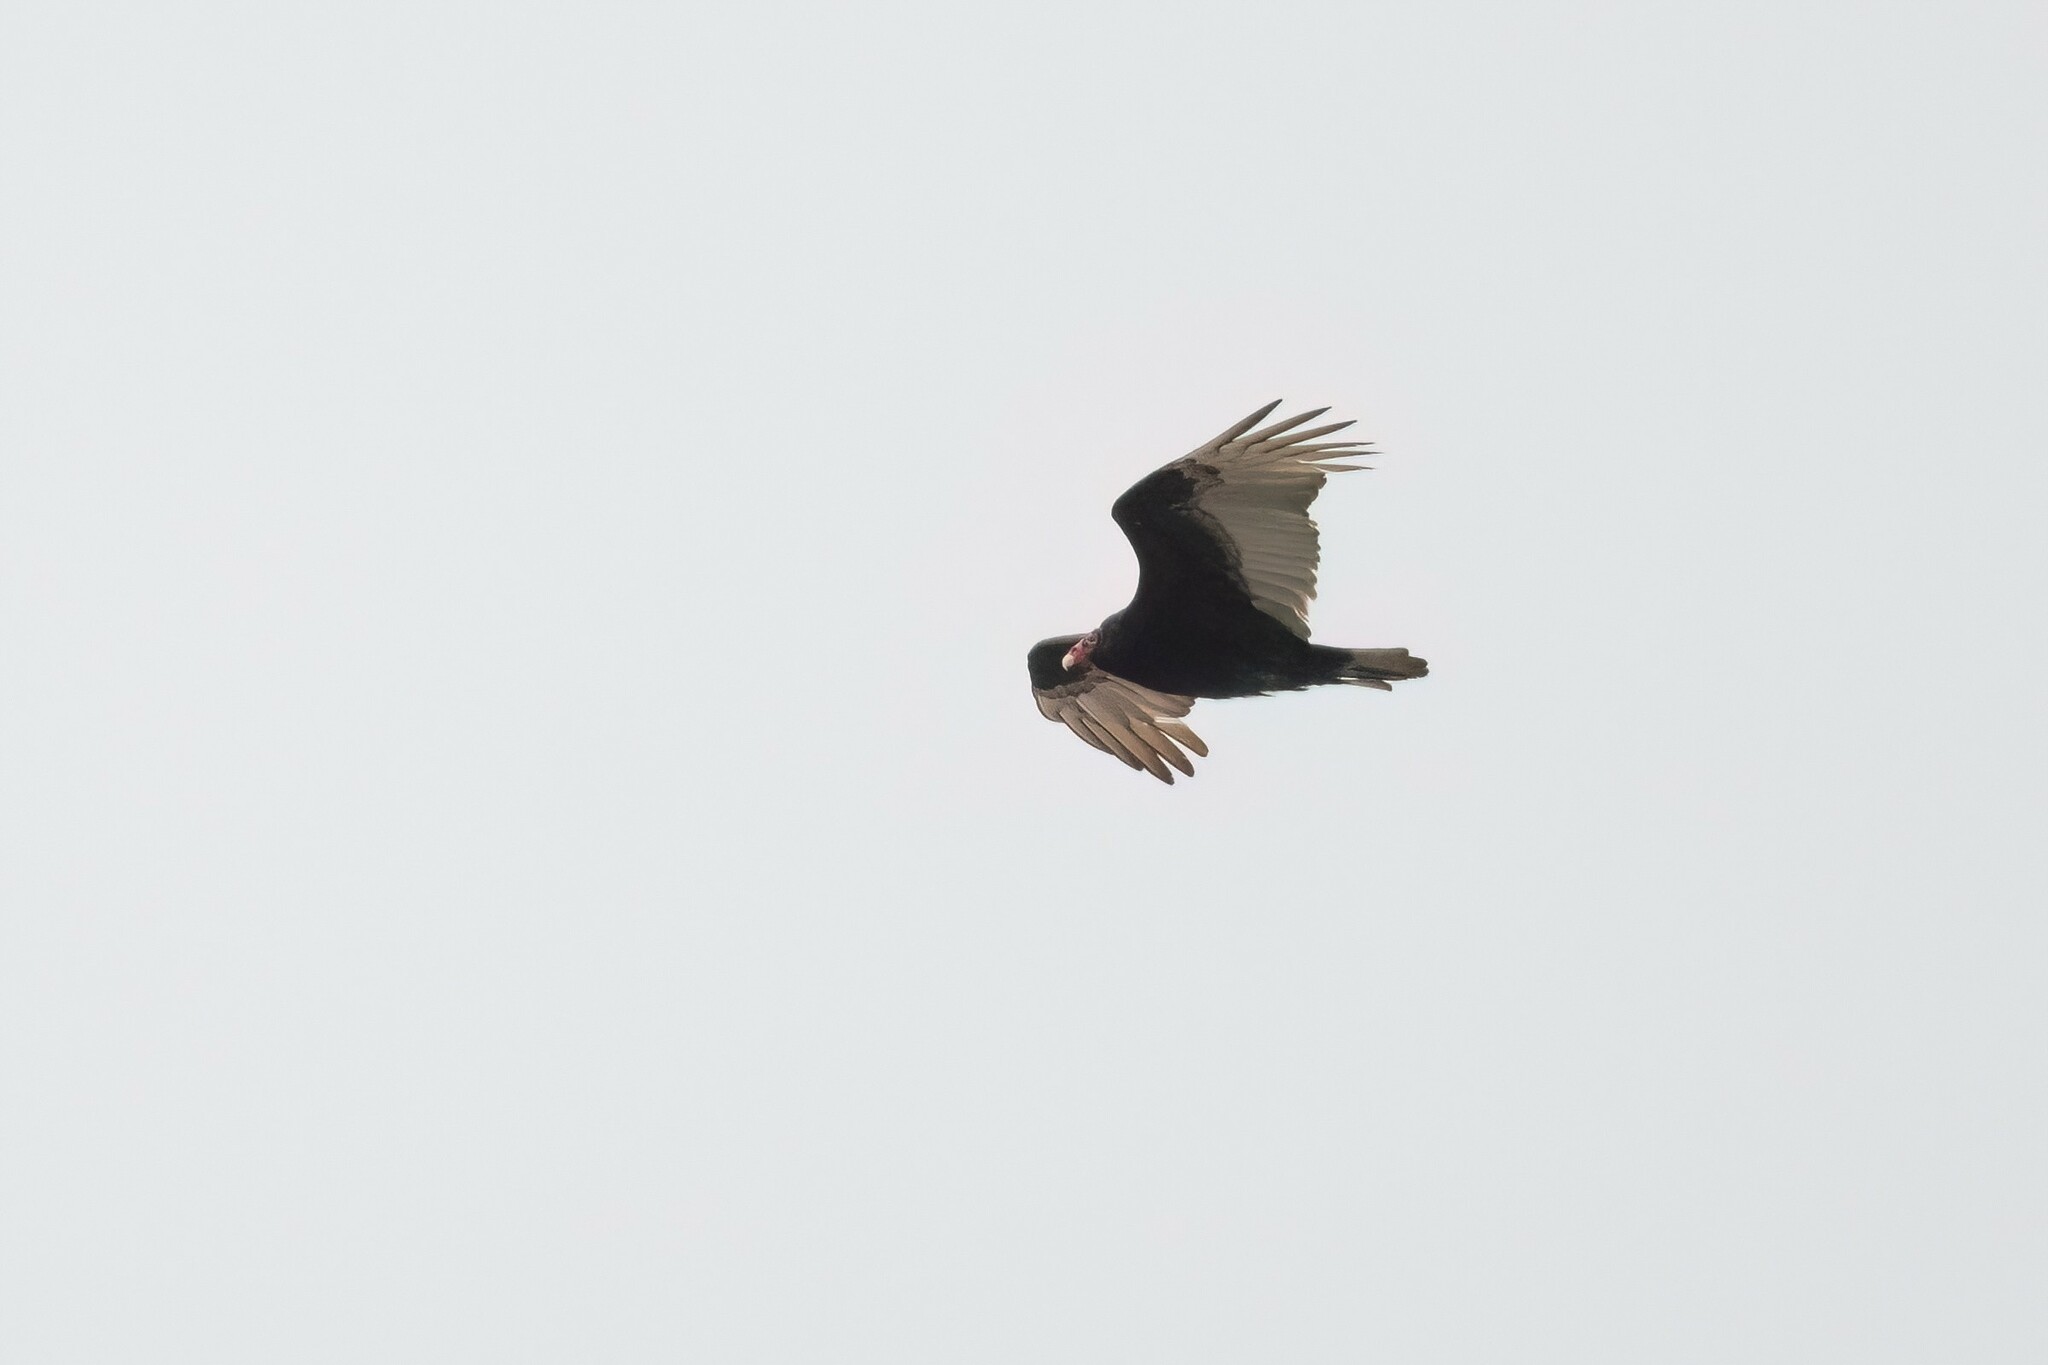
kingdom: Animalia
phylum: Chordata
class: Aves
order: Accipitriformes
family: Cathartidae
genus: Cathartes
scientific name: Cathartes aura
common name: Turkey vulture
